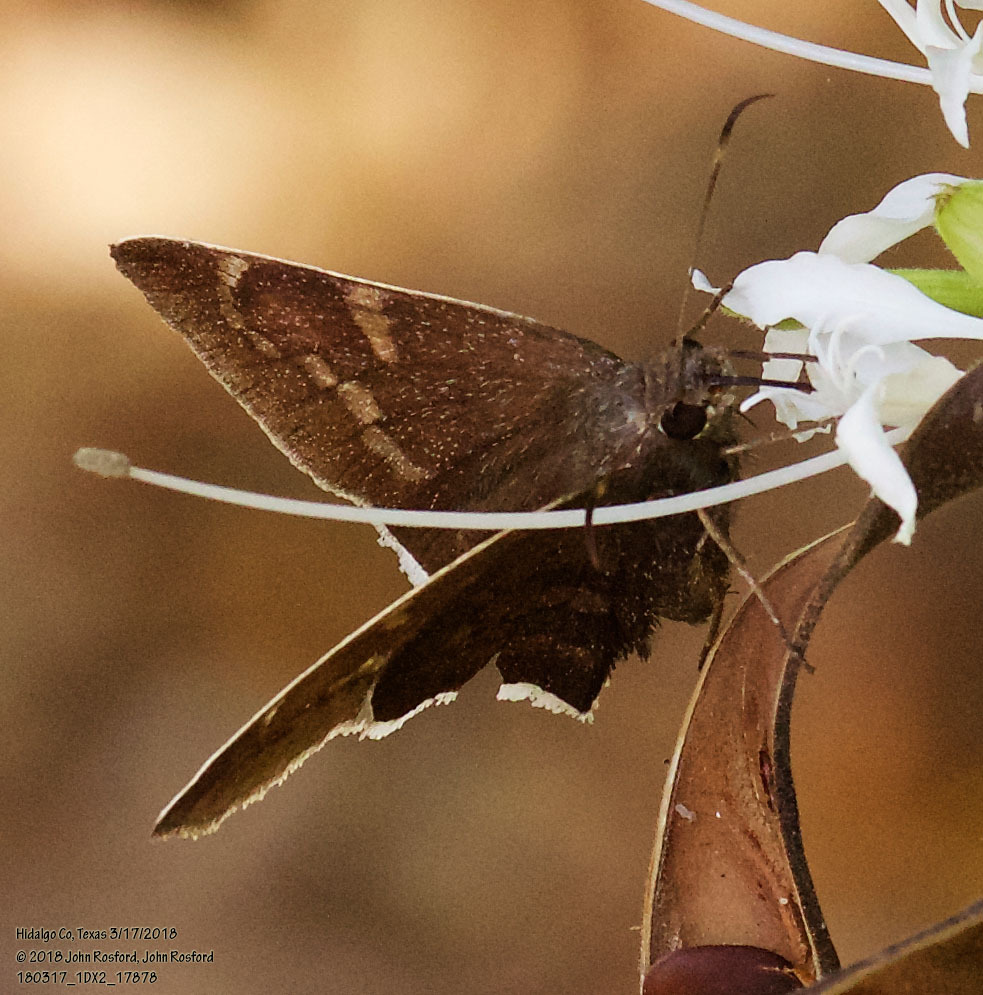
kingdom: Animalia
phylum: Arthropoda
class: Insecta
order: Lepidoptera
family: Hesperiidae
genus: Achalarus
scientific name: Achalarus Murgaria albociliatus
